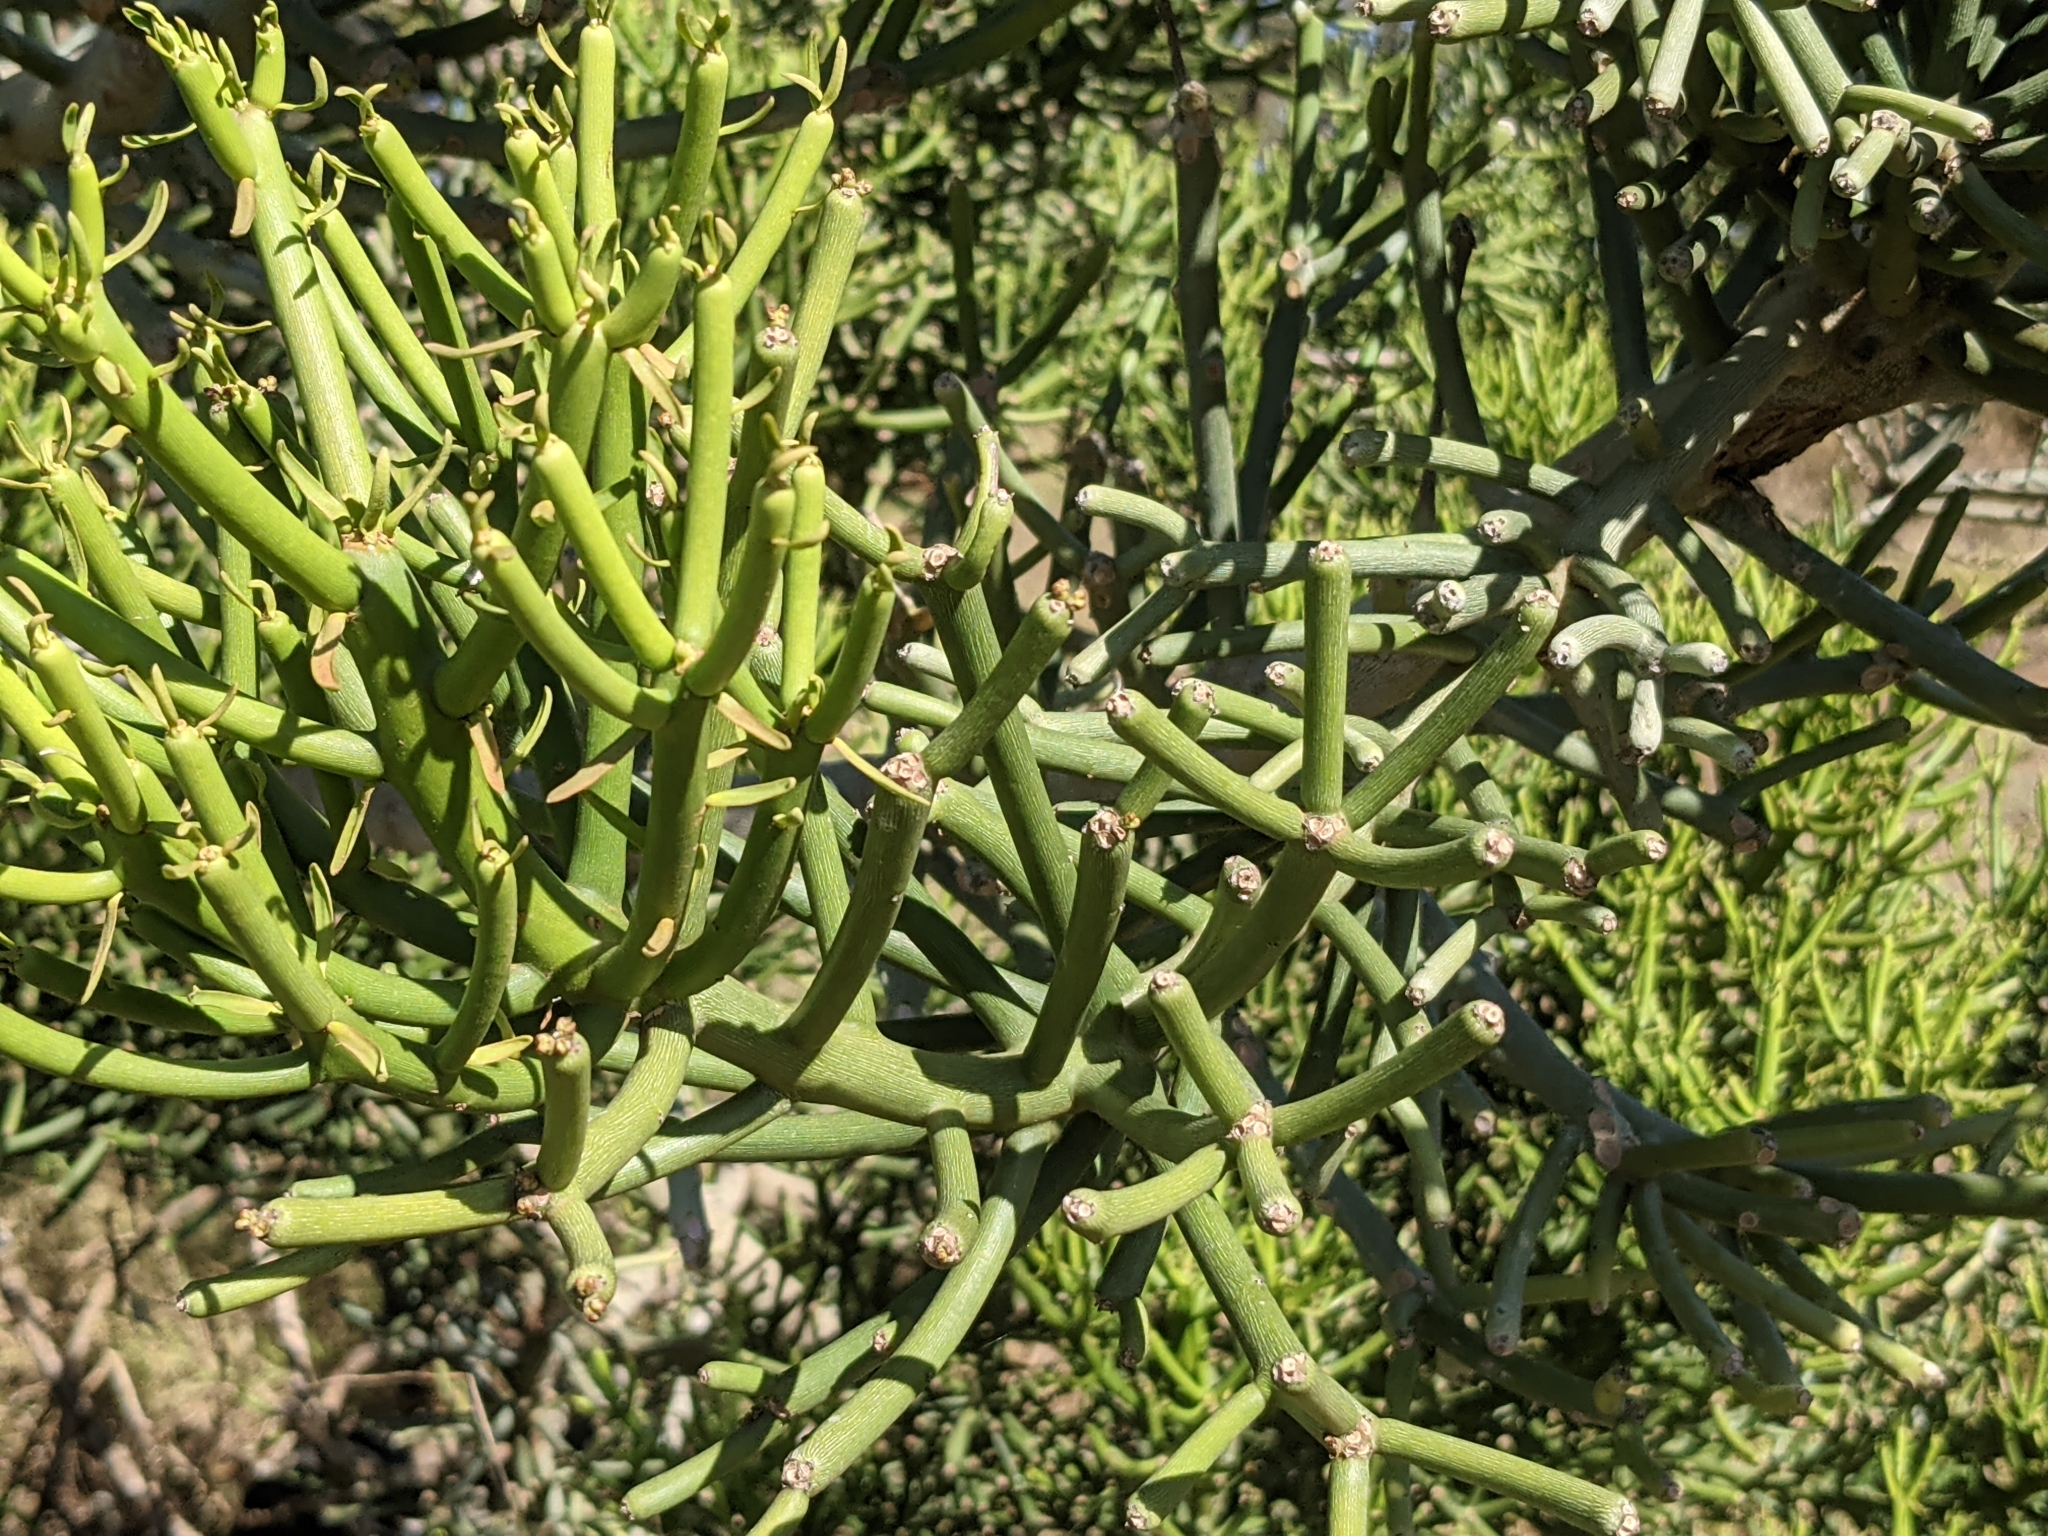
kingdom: Plantae
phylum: Tracheophyta
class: Magnoliopsida
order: Malpighiales
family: Euphorbiaceae
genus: Euphorbia
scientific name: Euphorbia tirucalli
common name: Indiantree spurge
